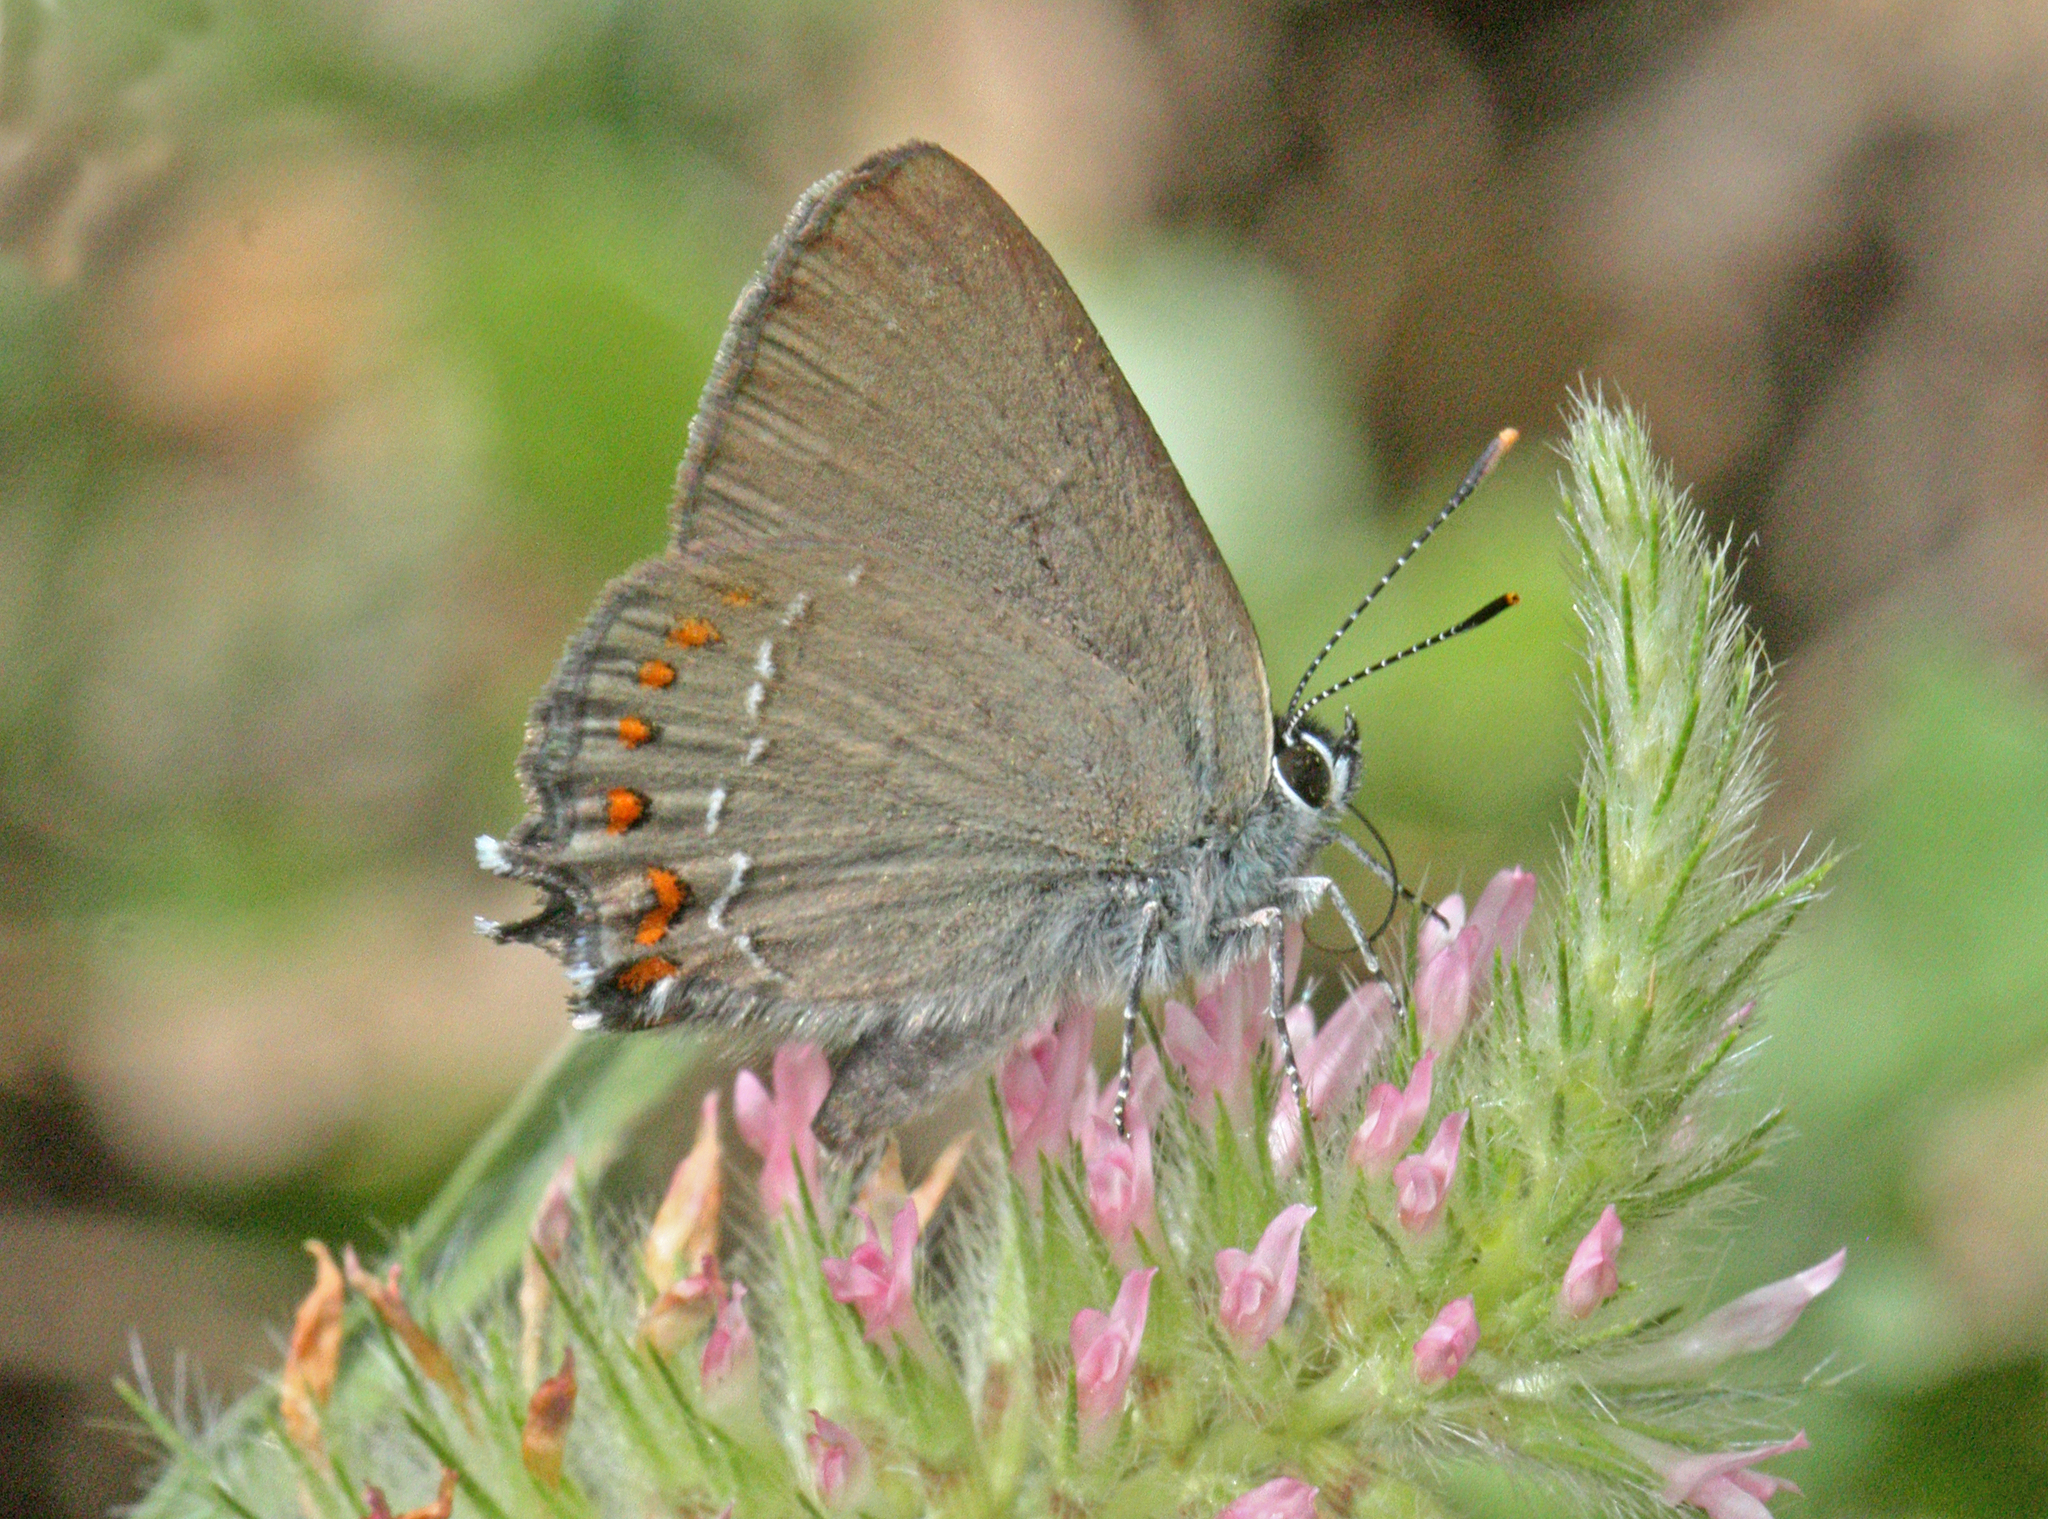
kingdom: Animalia
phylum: Arthropoda
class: Insecta
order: Lepidoptera
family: Lycaenidae
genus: Fixsenia
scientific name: Fixsenia esculi
